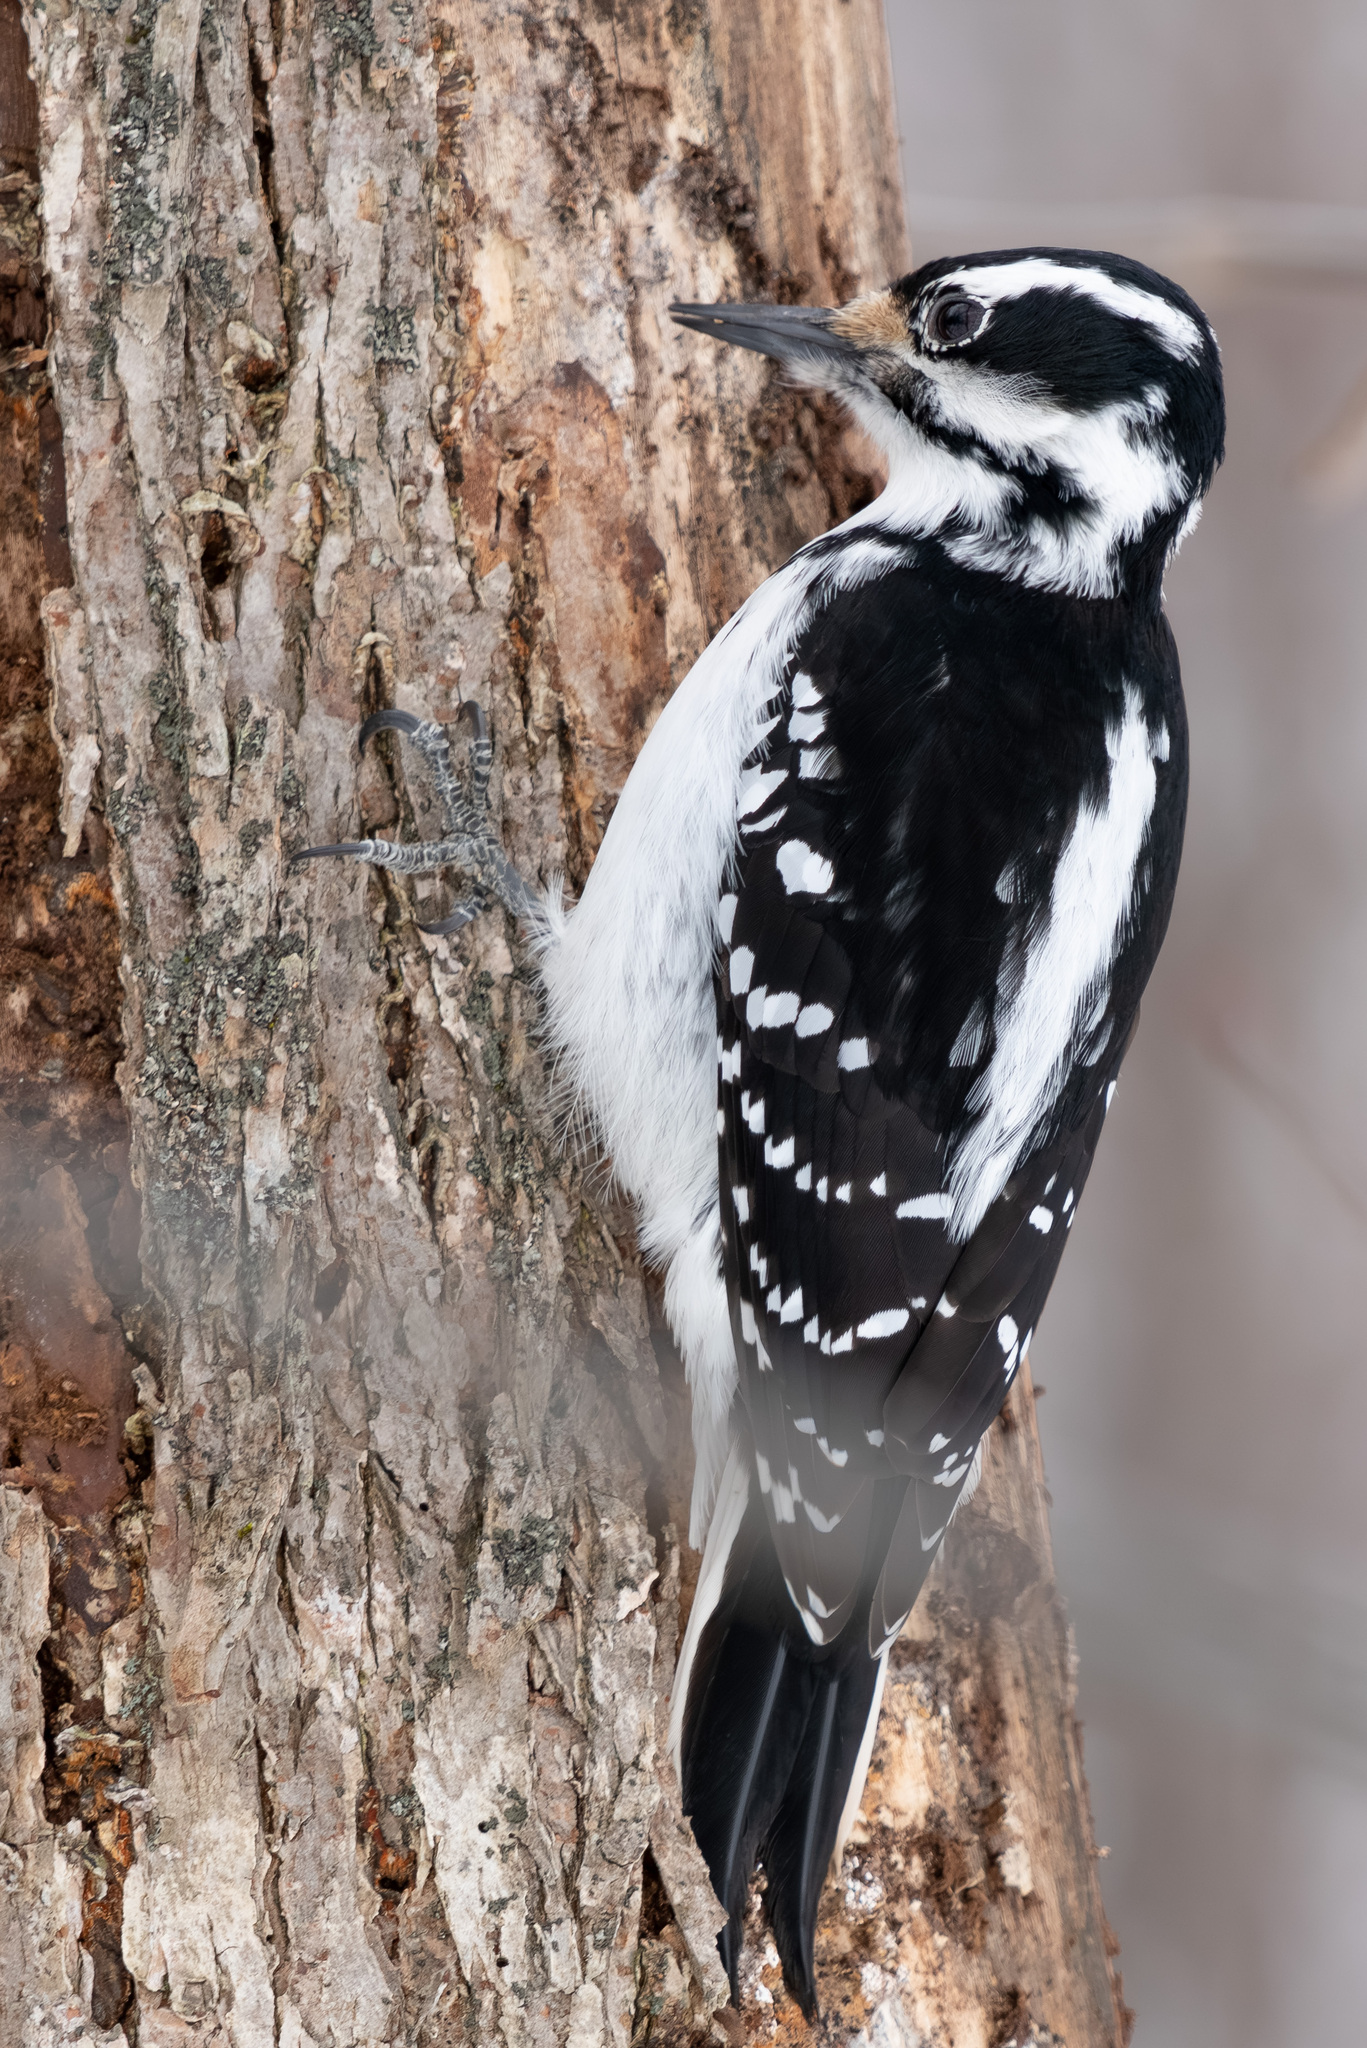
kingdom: Animalia
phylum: Chordata
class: Aves
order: Piciformes
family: Picidae
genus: Leuconotopicus
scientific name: Leuconotopicus villosus
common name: Hairy woodpecker
